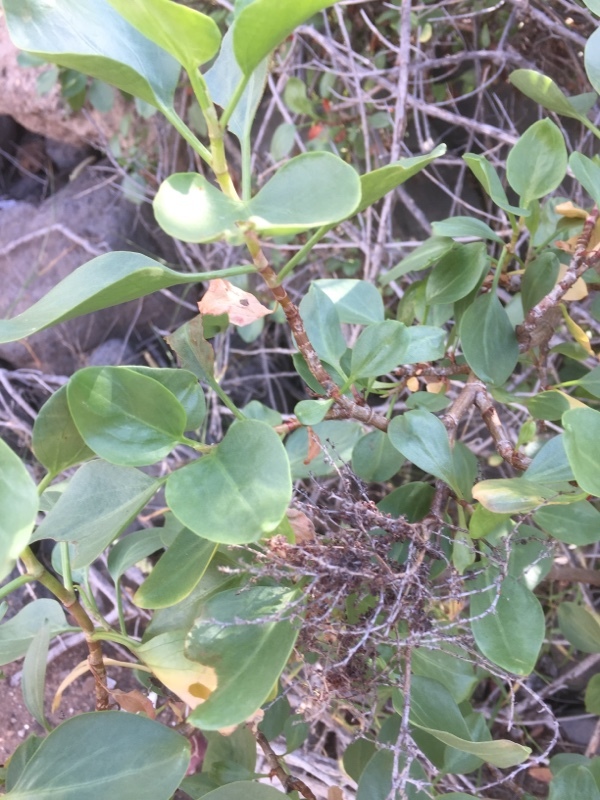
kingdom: Plantae
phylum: Tracheophyta
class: Magnoliopsida
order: Caryophyllales
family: Polygonaceae
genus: Rumex
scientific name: Rumex lunaria
